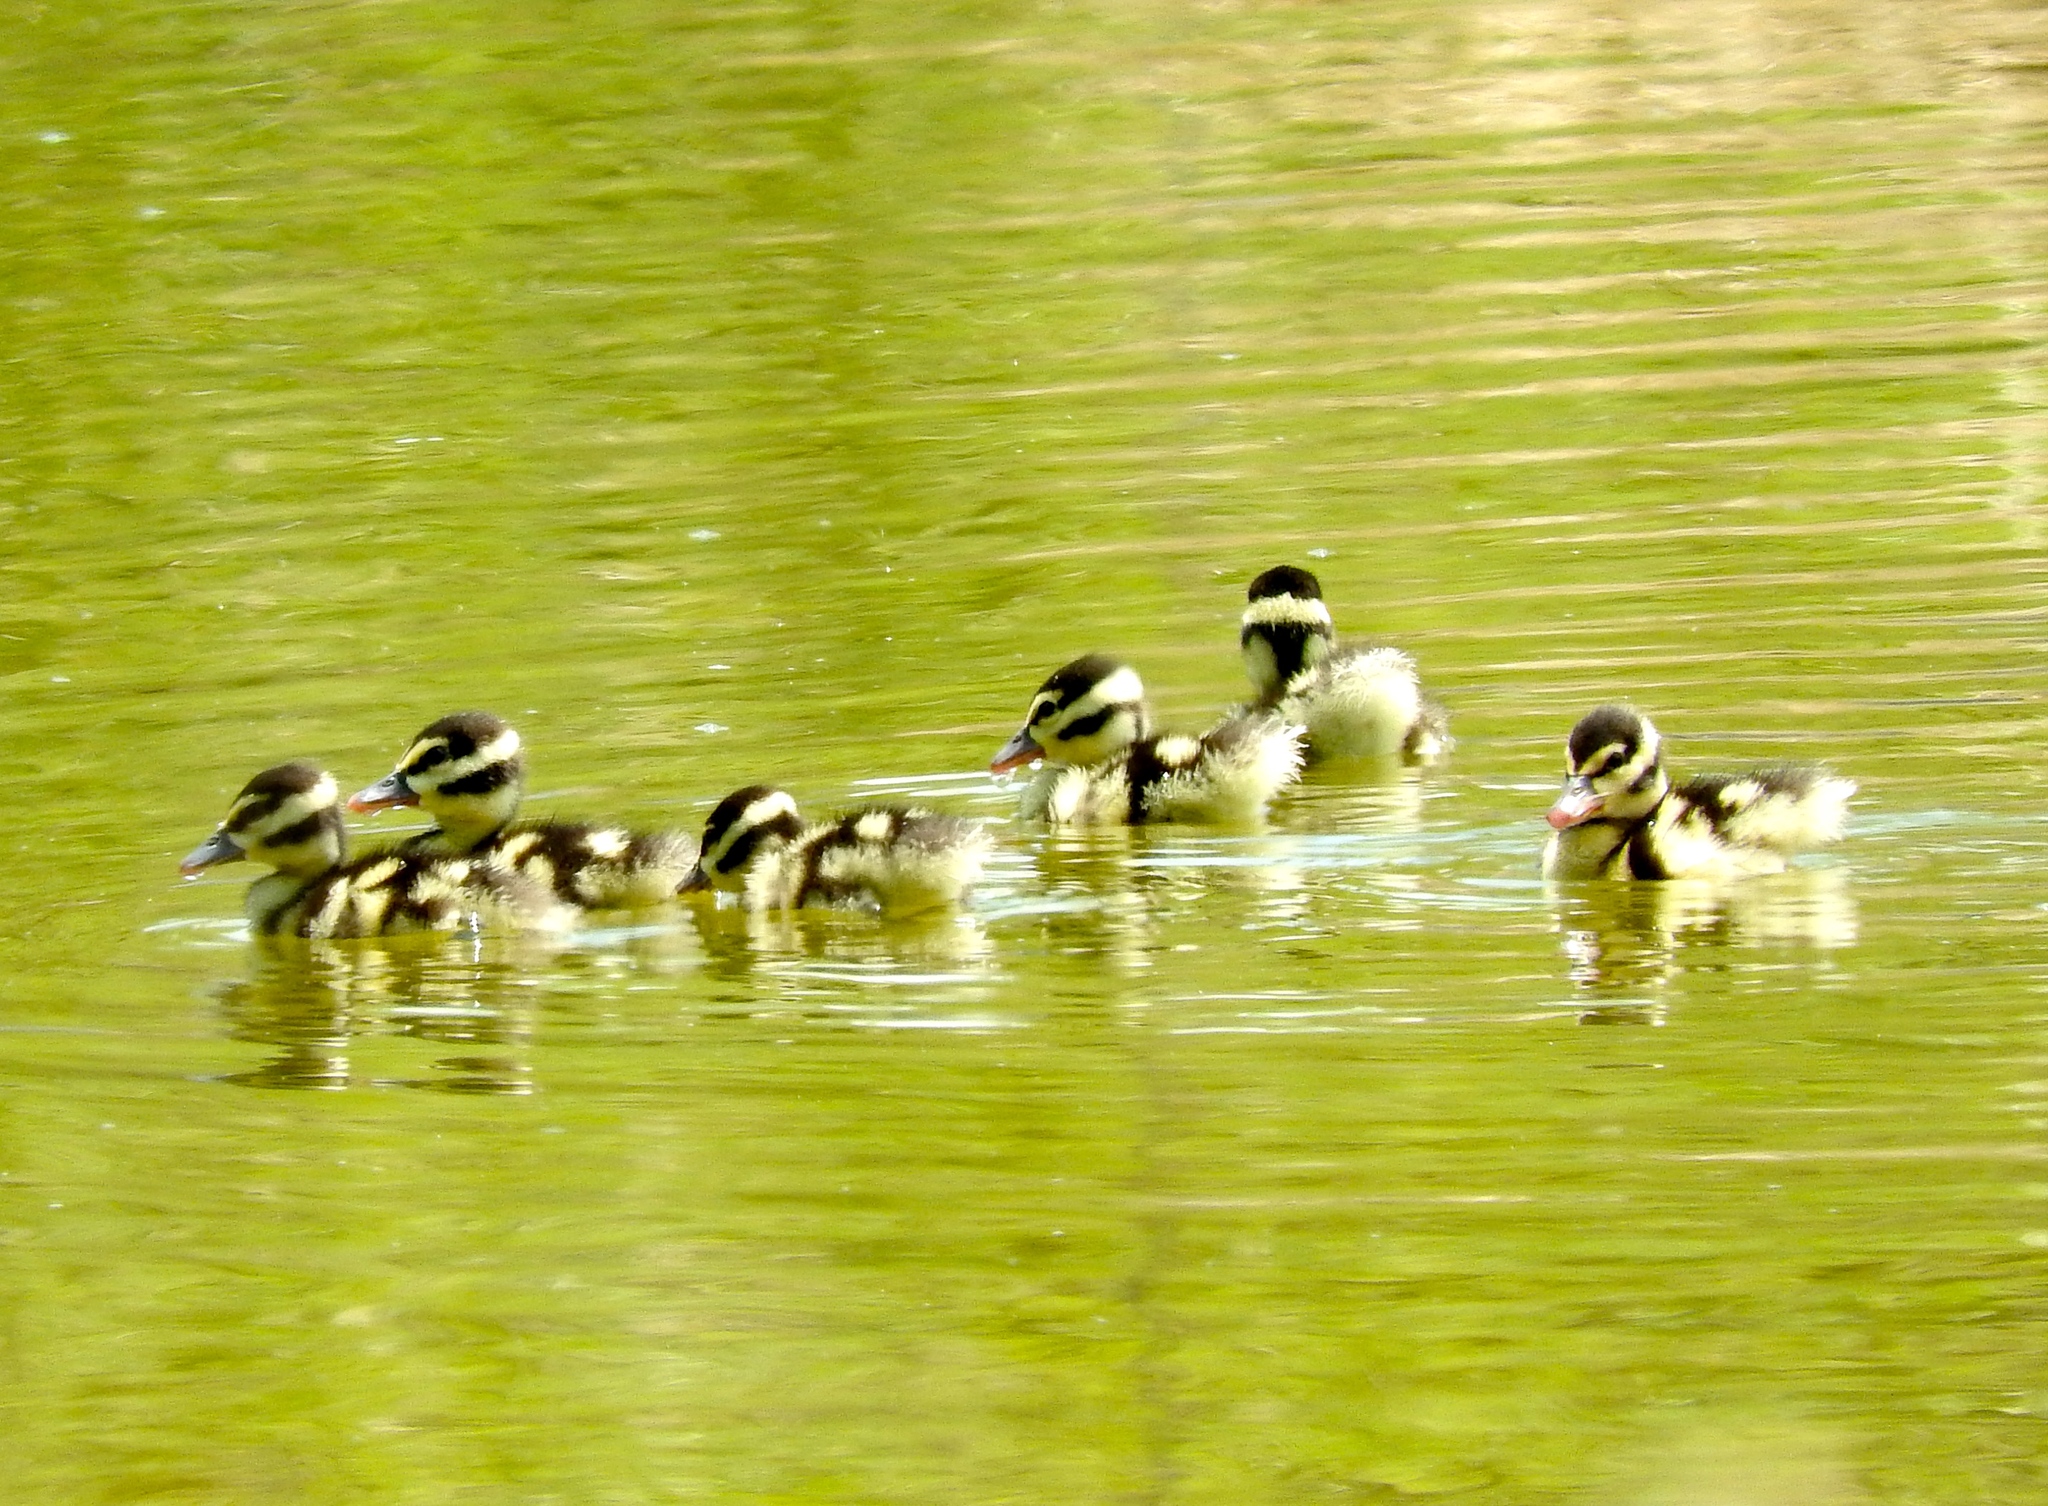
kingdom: Animalia
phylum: Chordata
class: Aves
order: Anseriformes
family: Anatidae
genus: Dendrocygna
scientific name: Dendrocygna autumnalis
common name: Black-bellied whistling duck
